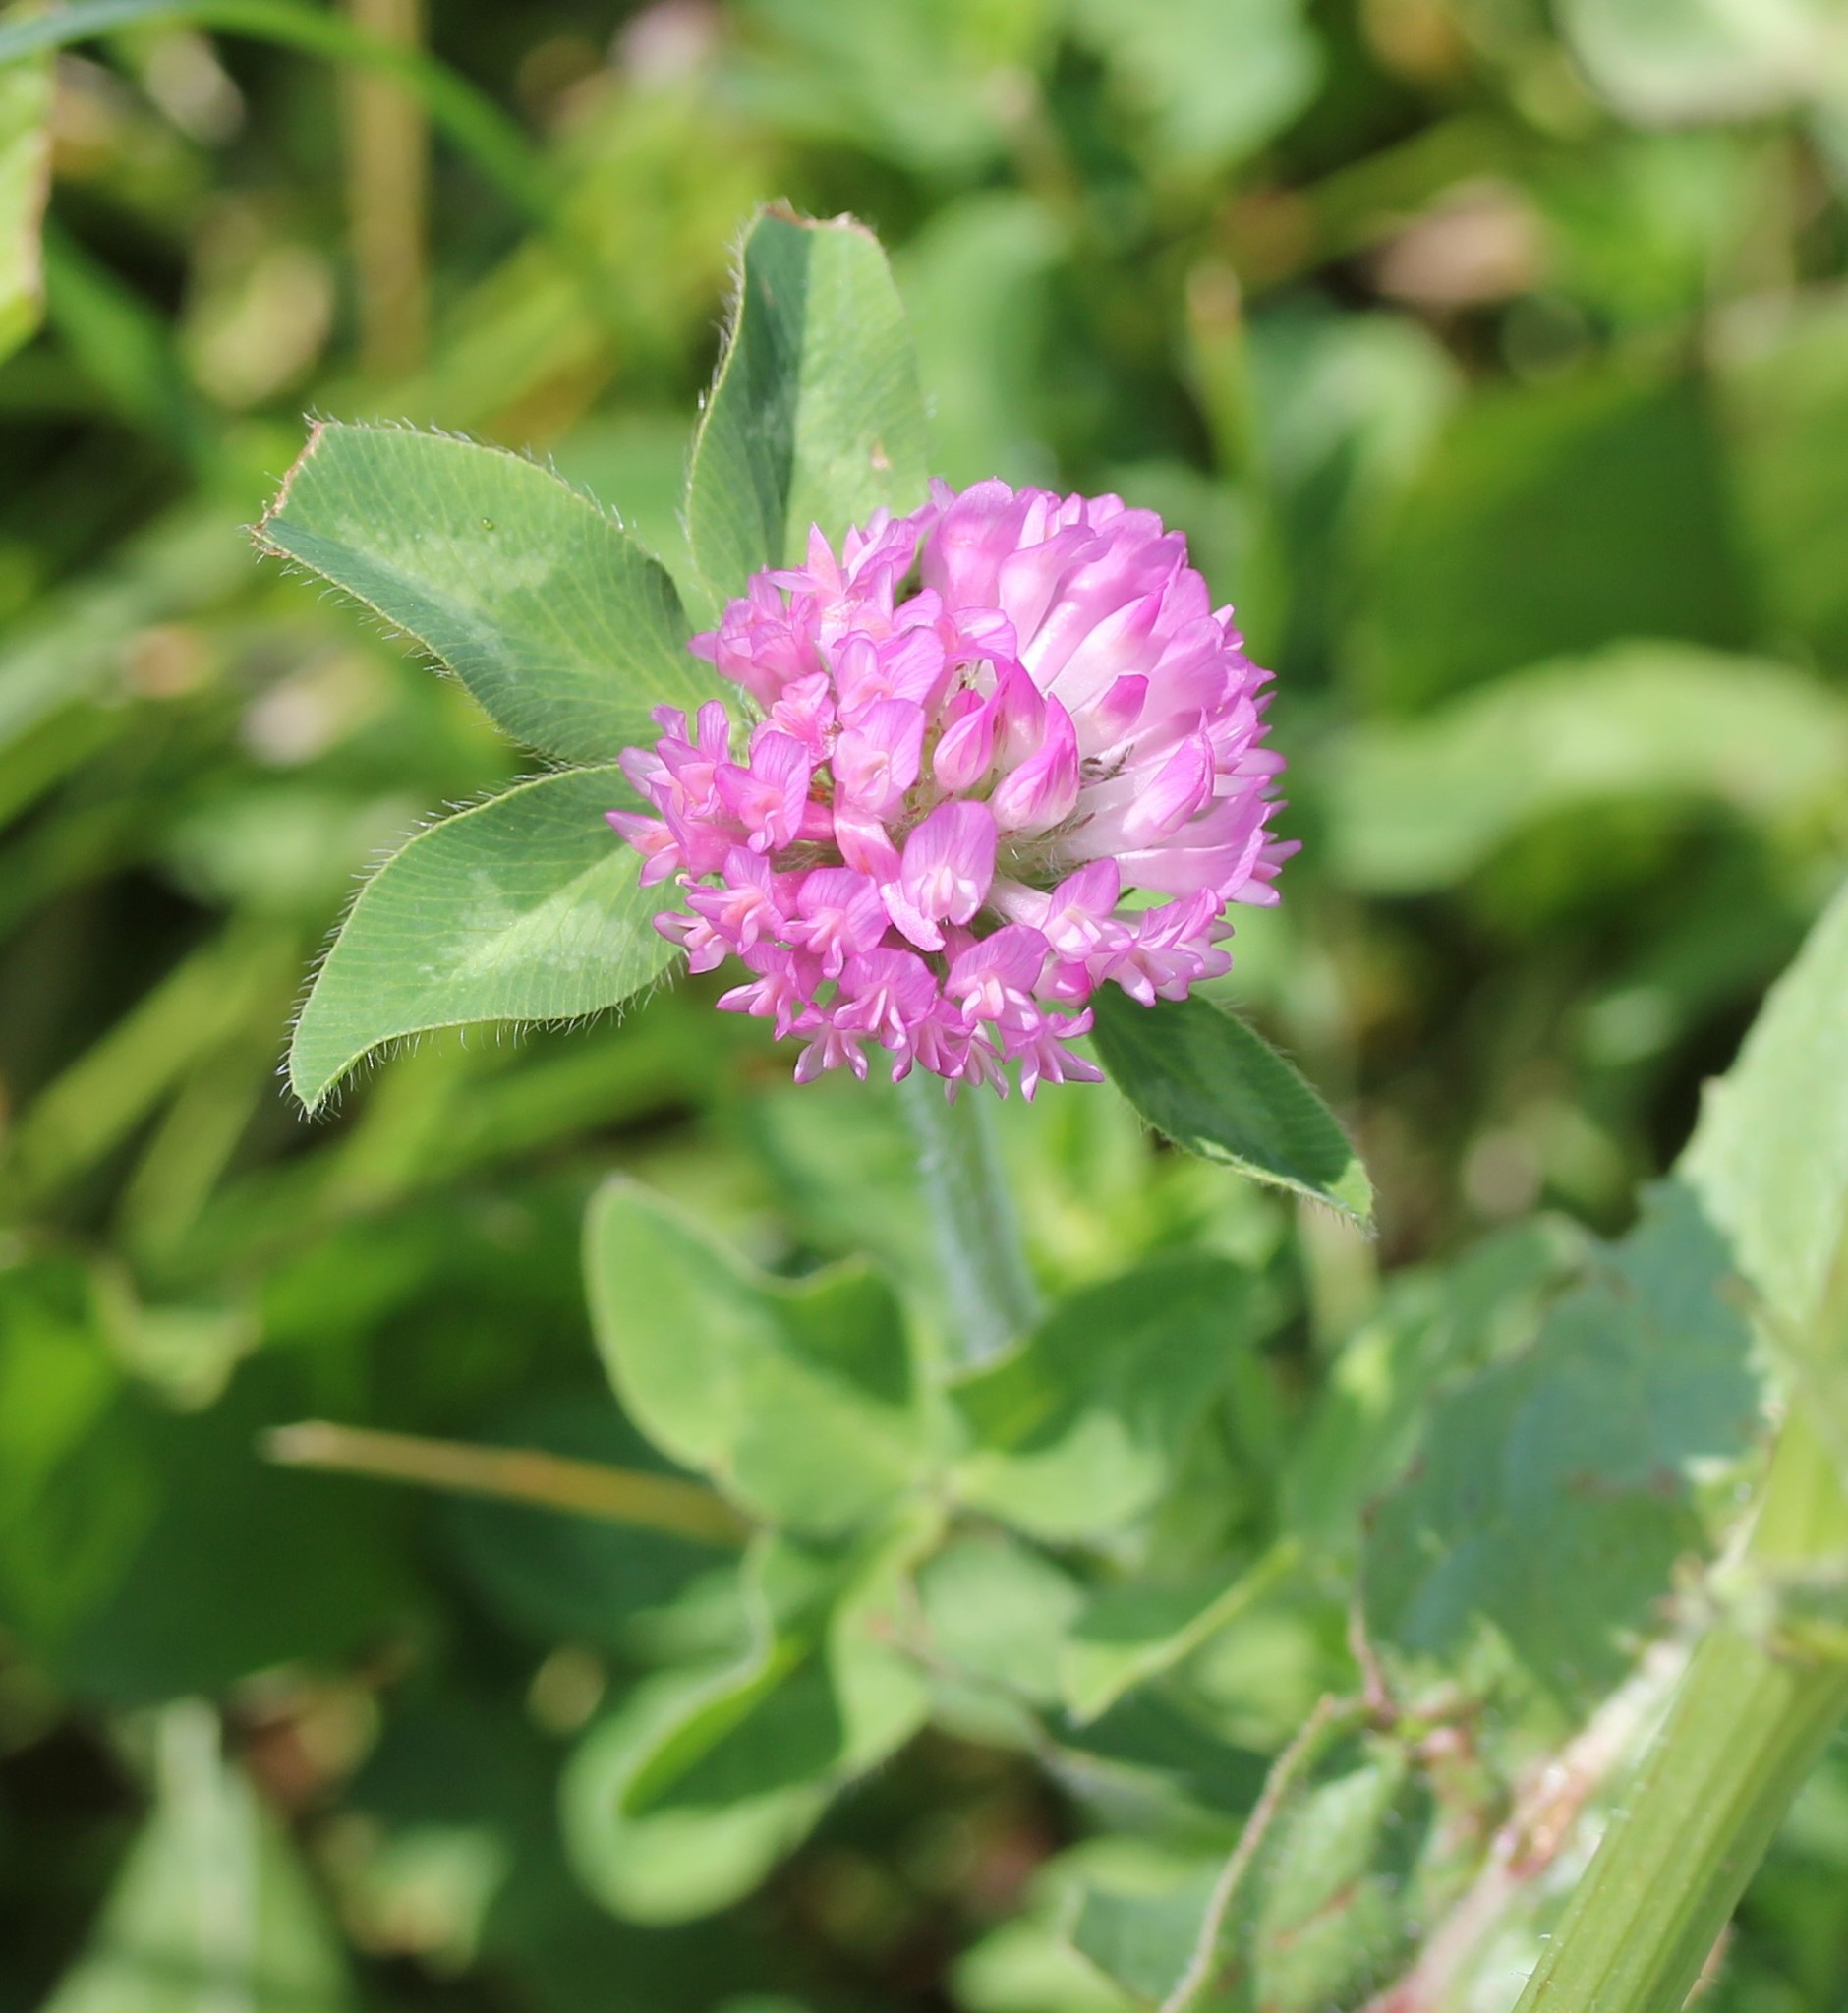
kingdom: Plantae
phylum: Tracheophyta
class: Magnoliopsida
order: Fabales
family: Fabaceae
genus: Trifolium
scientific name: Trifolium pratense
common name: Red clover
